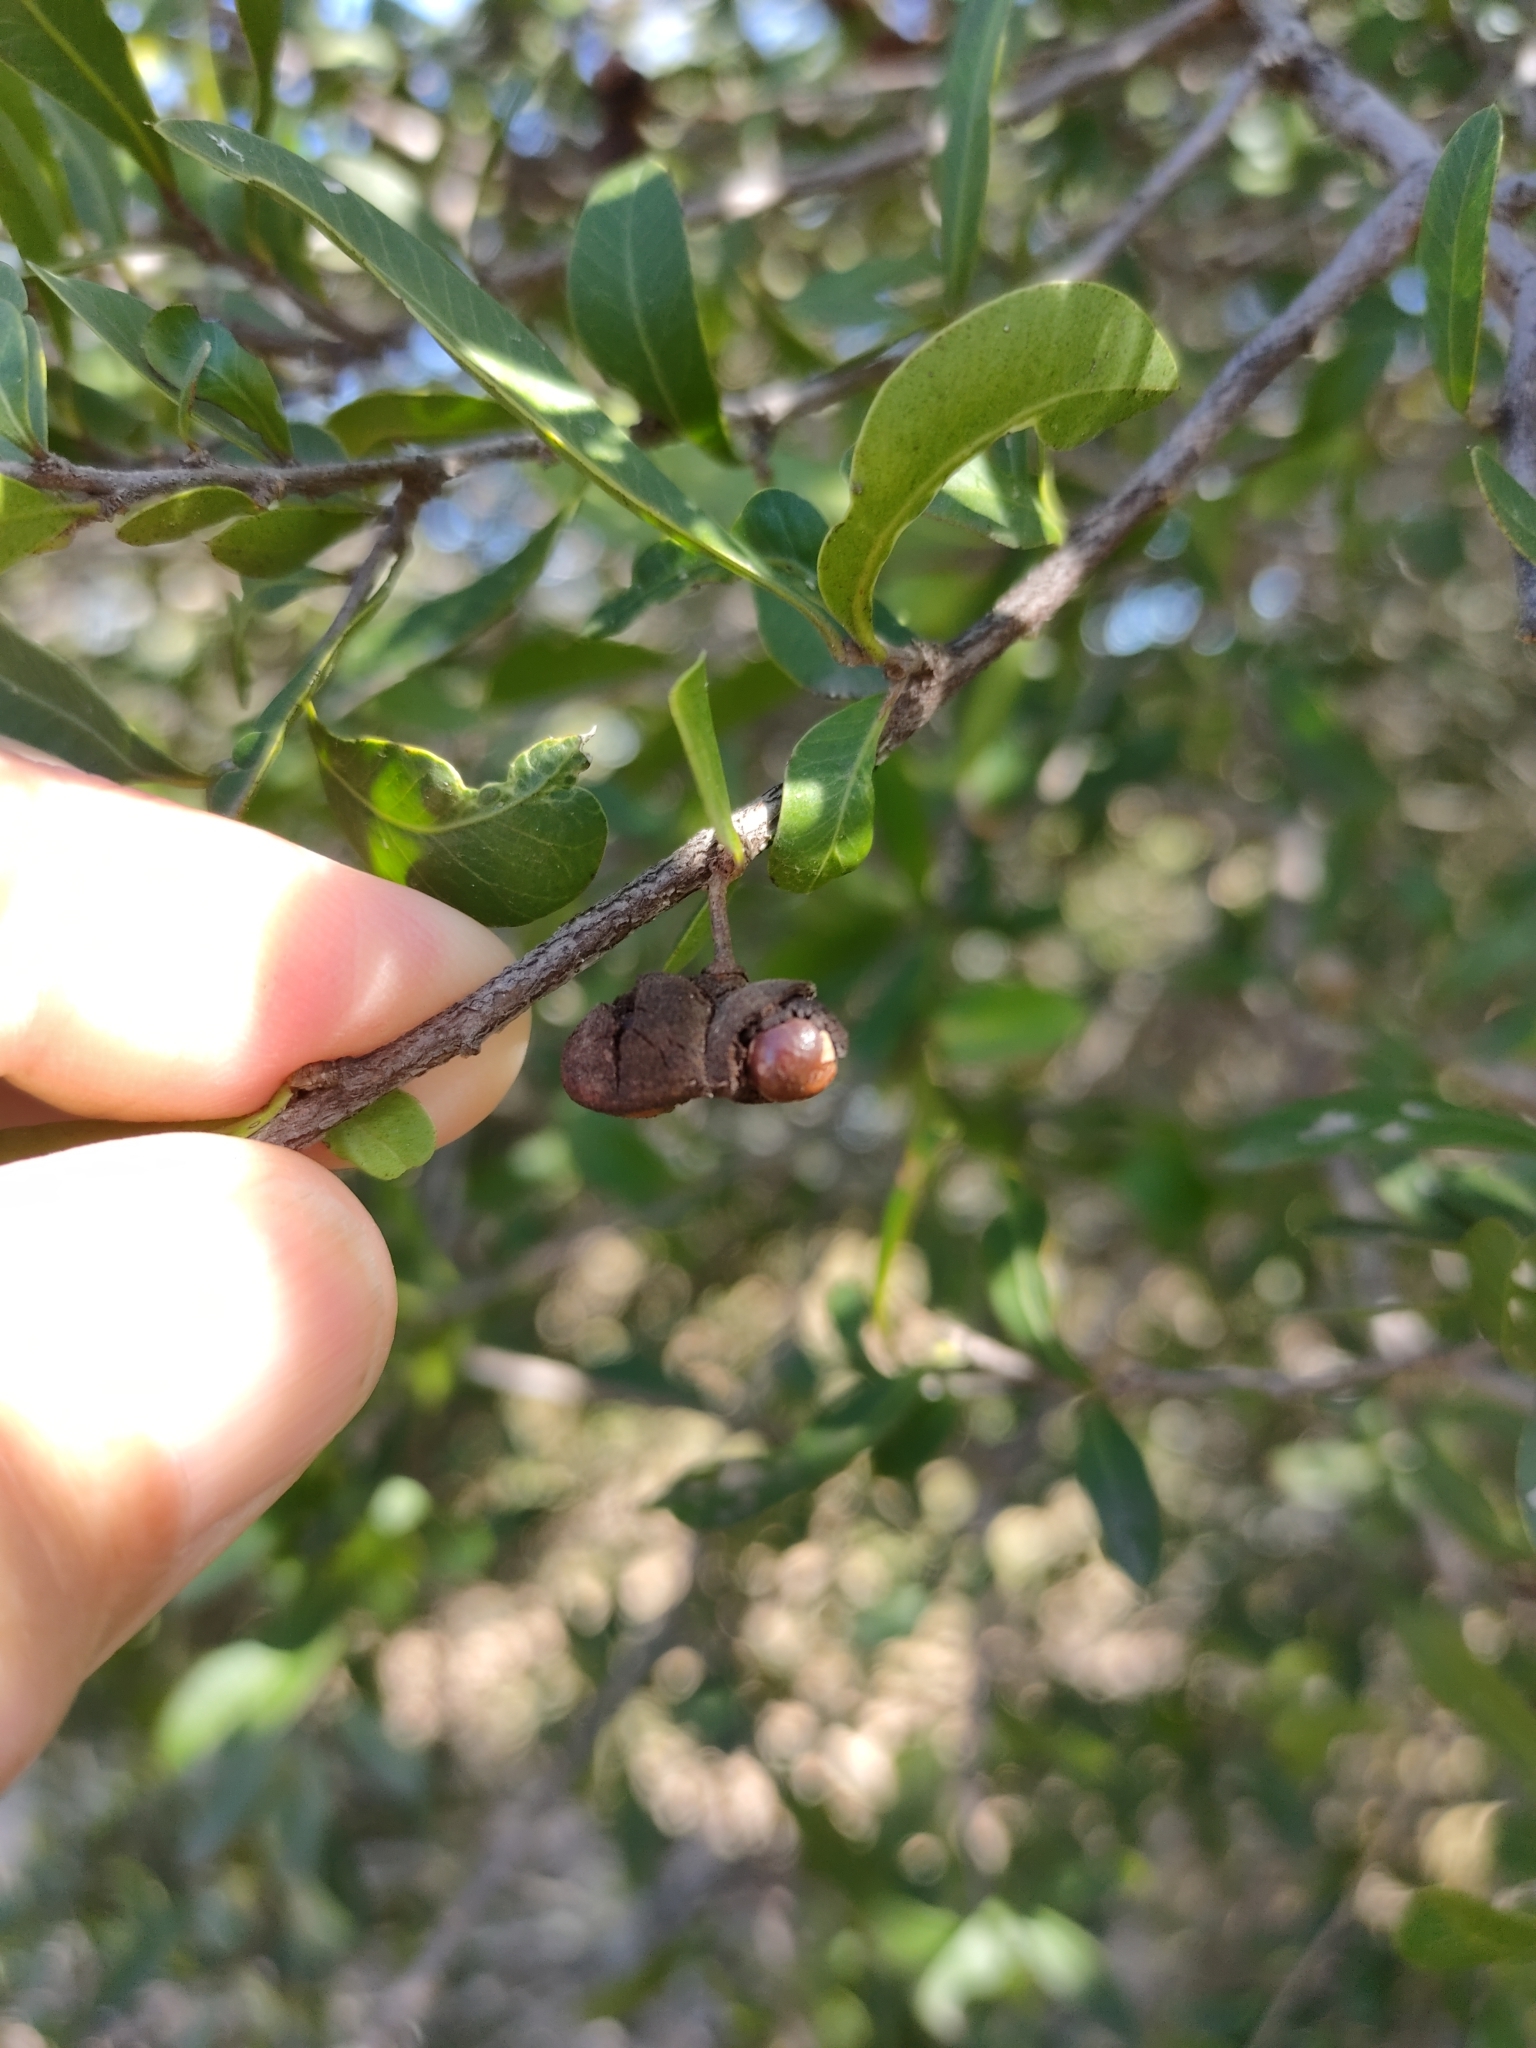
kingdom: Plantae
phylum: Tracheophyta
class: Magnoliopsida
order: Sapindales
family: Sapindaceae
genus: Alectryon
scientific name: Alectryon diversifolius
